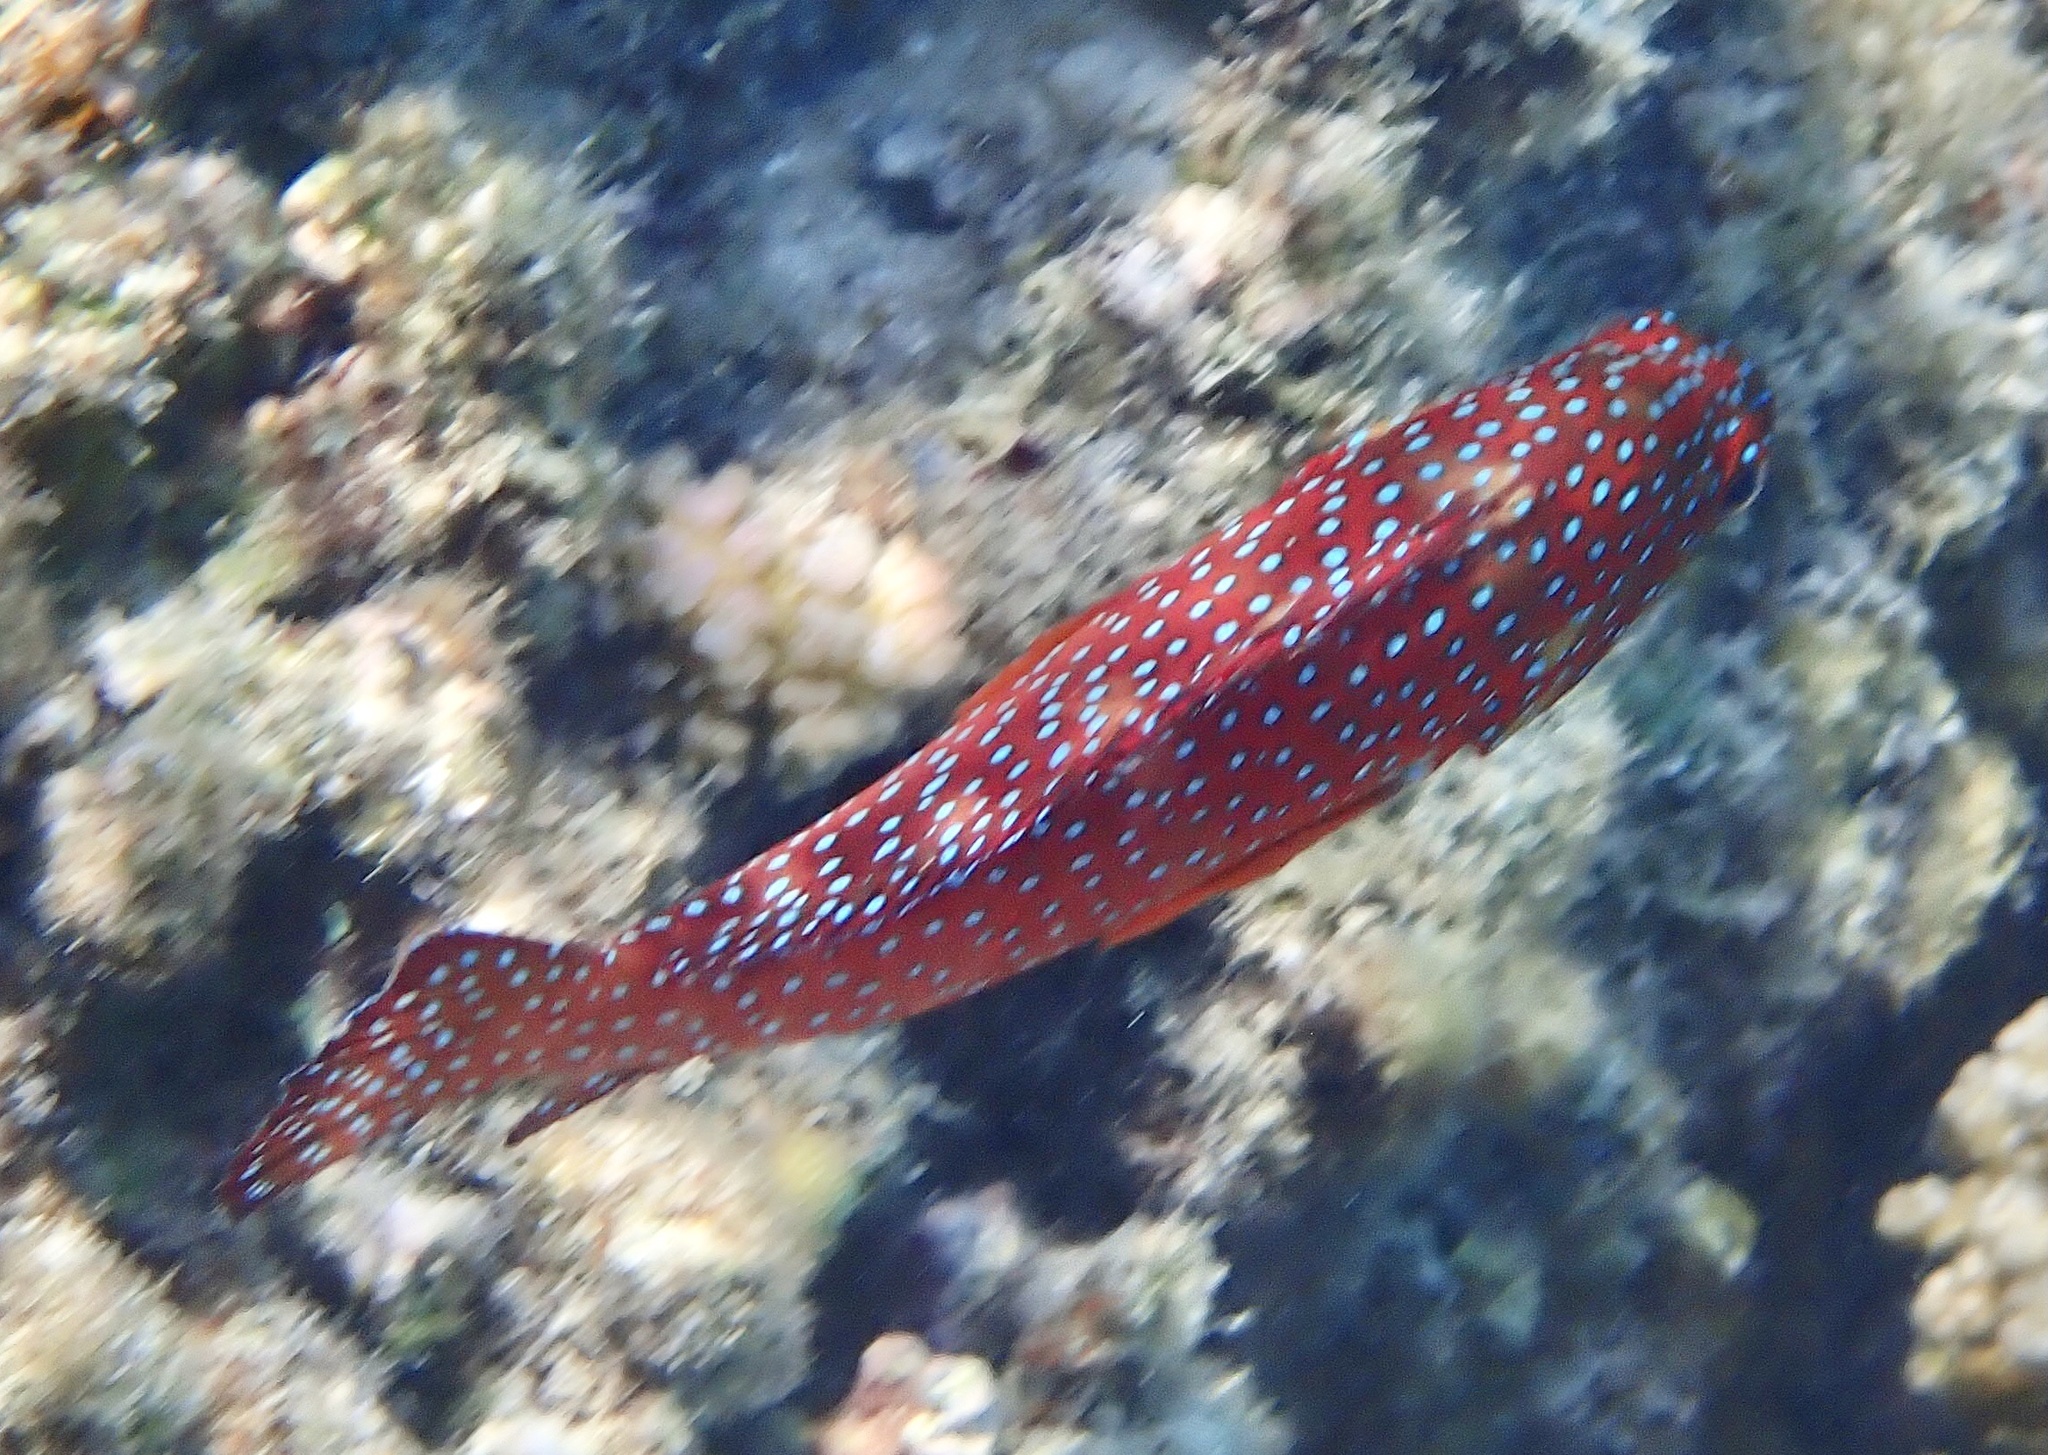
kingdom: Animalia
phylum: Chordata
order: Perciformes
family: Serranidae
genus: Cephalopholis
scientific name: Cephalopholis miniata
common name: Coral hind
